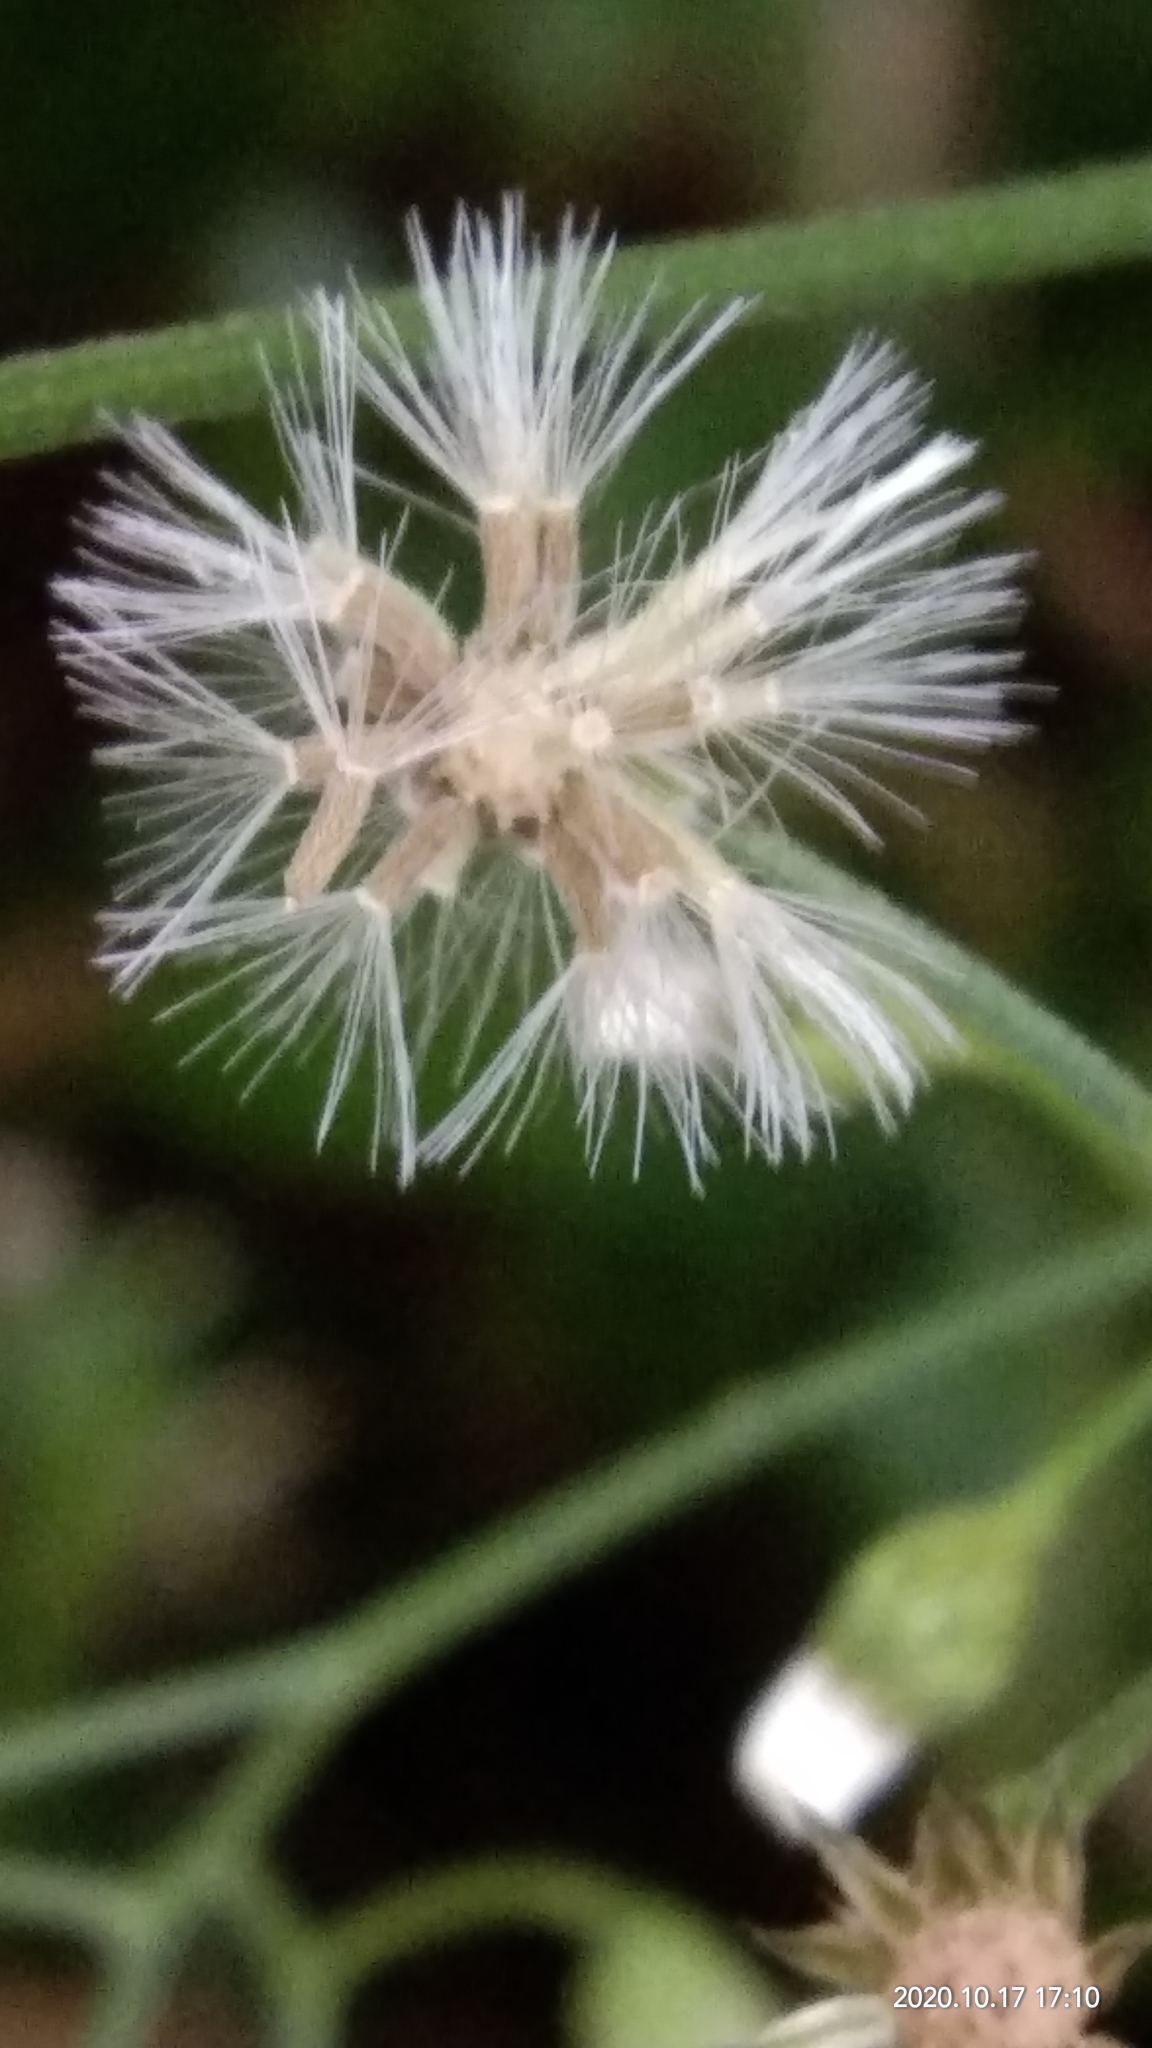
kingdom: Plantae
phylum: Tracheophyta
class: Magnoliopsida
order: Asterales
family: Asteraceae
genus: Cyanthillium
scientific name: Cyanthillium cinereum
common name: Little ironweed
